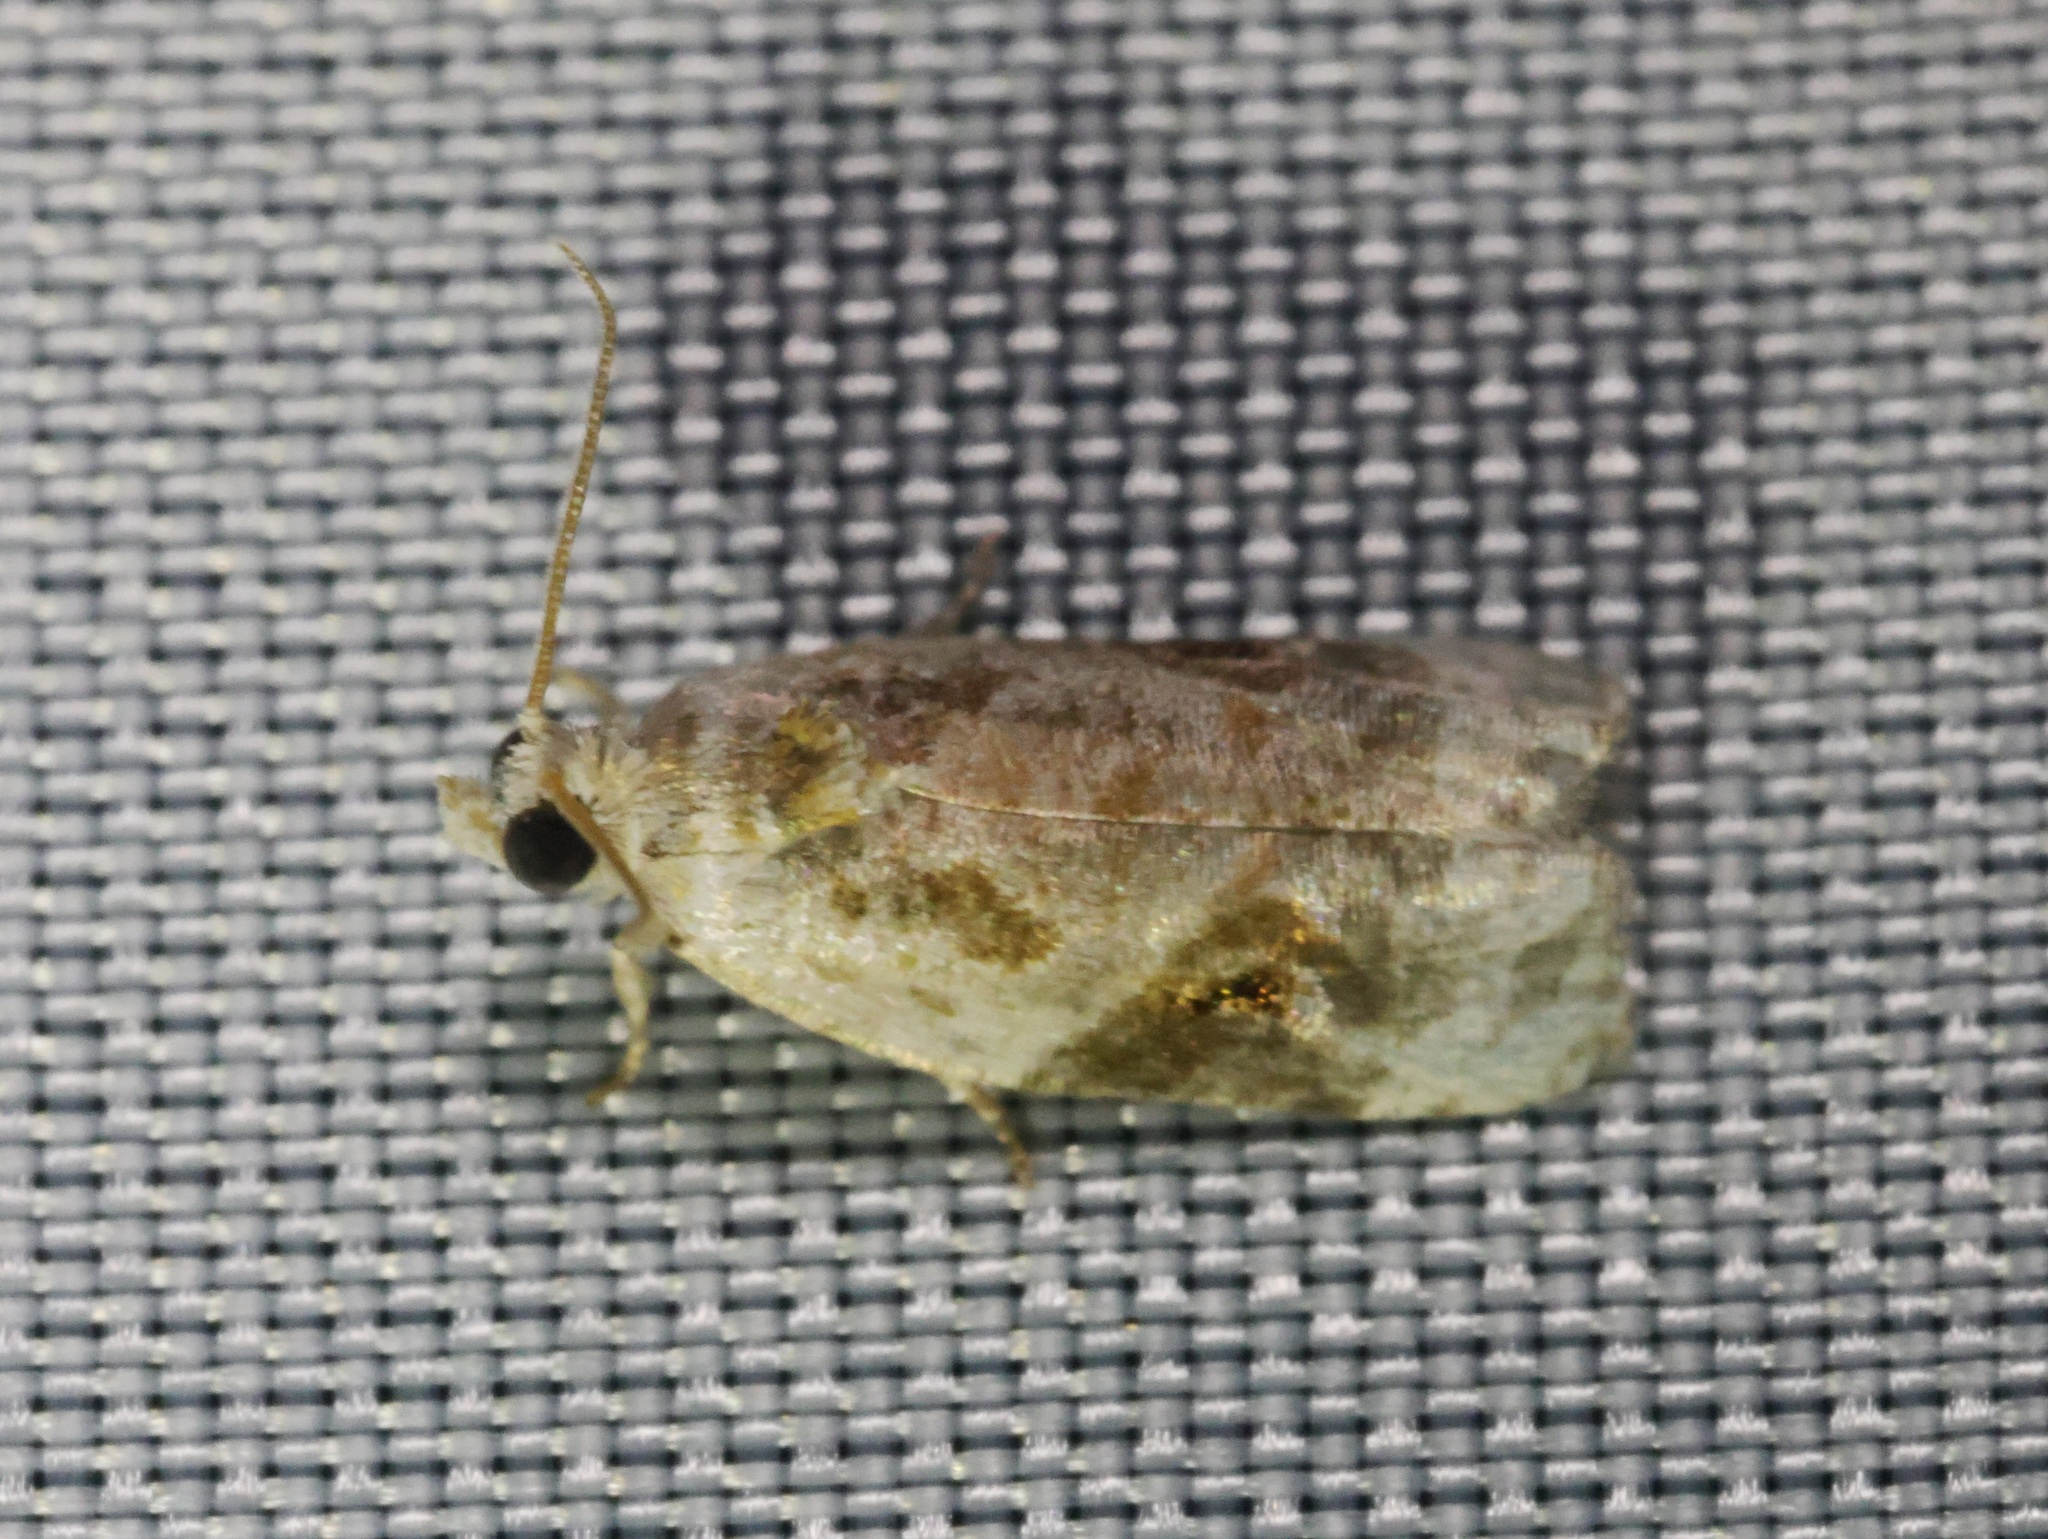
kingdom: Animalia
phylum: Arthropoda
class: Insecta
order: Lepidoptera
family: Tortricidae
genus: Apotomis
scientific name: Apotomis formalis
